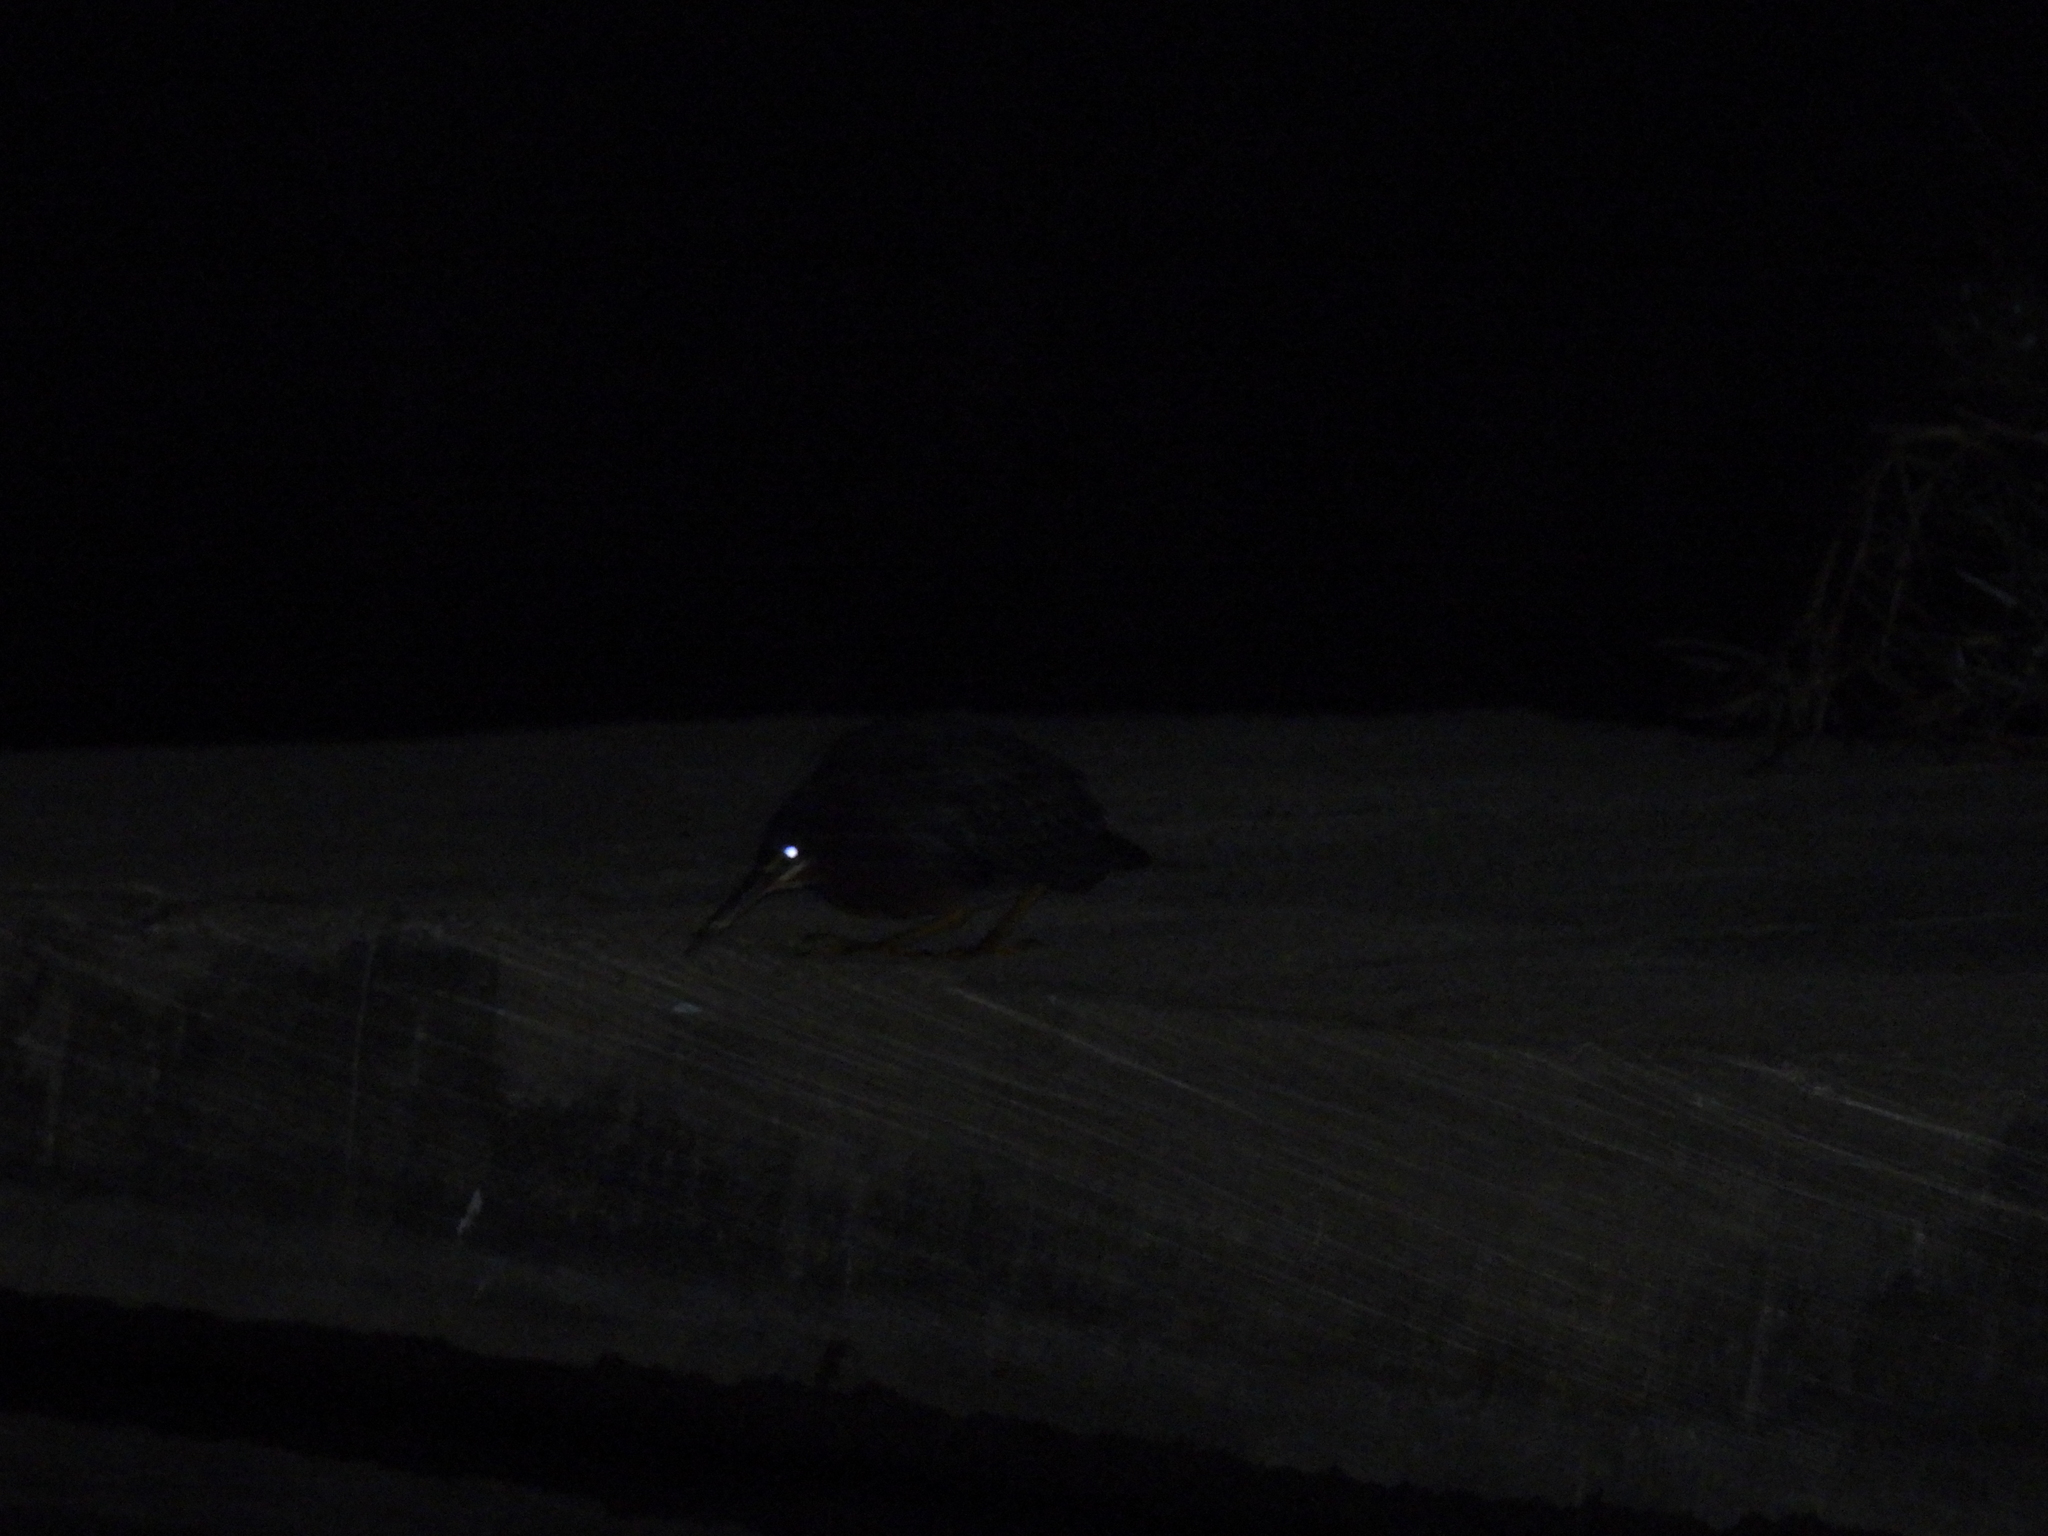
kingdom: Animalia
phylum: Chordata
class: Aves
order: Pelecaniformes
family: Ardeidae
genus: Butorides
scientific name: Butorides virescens
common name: Green heron
